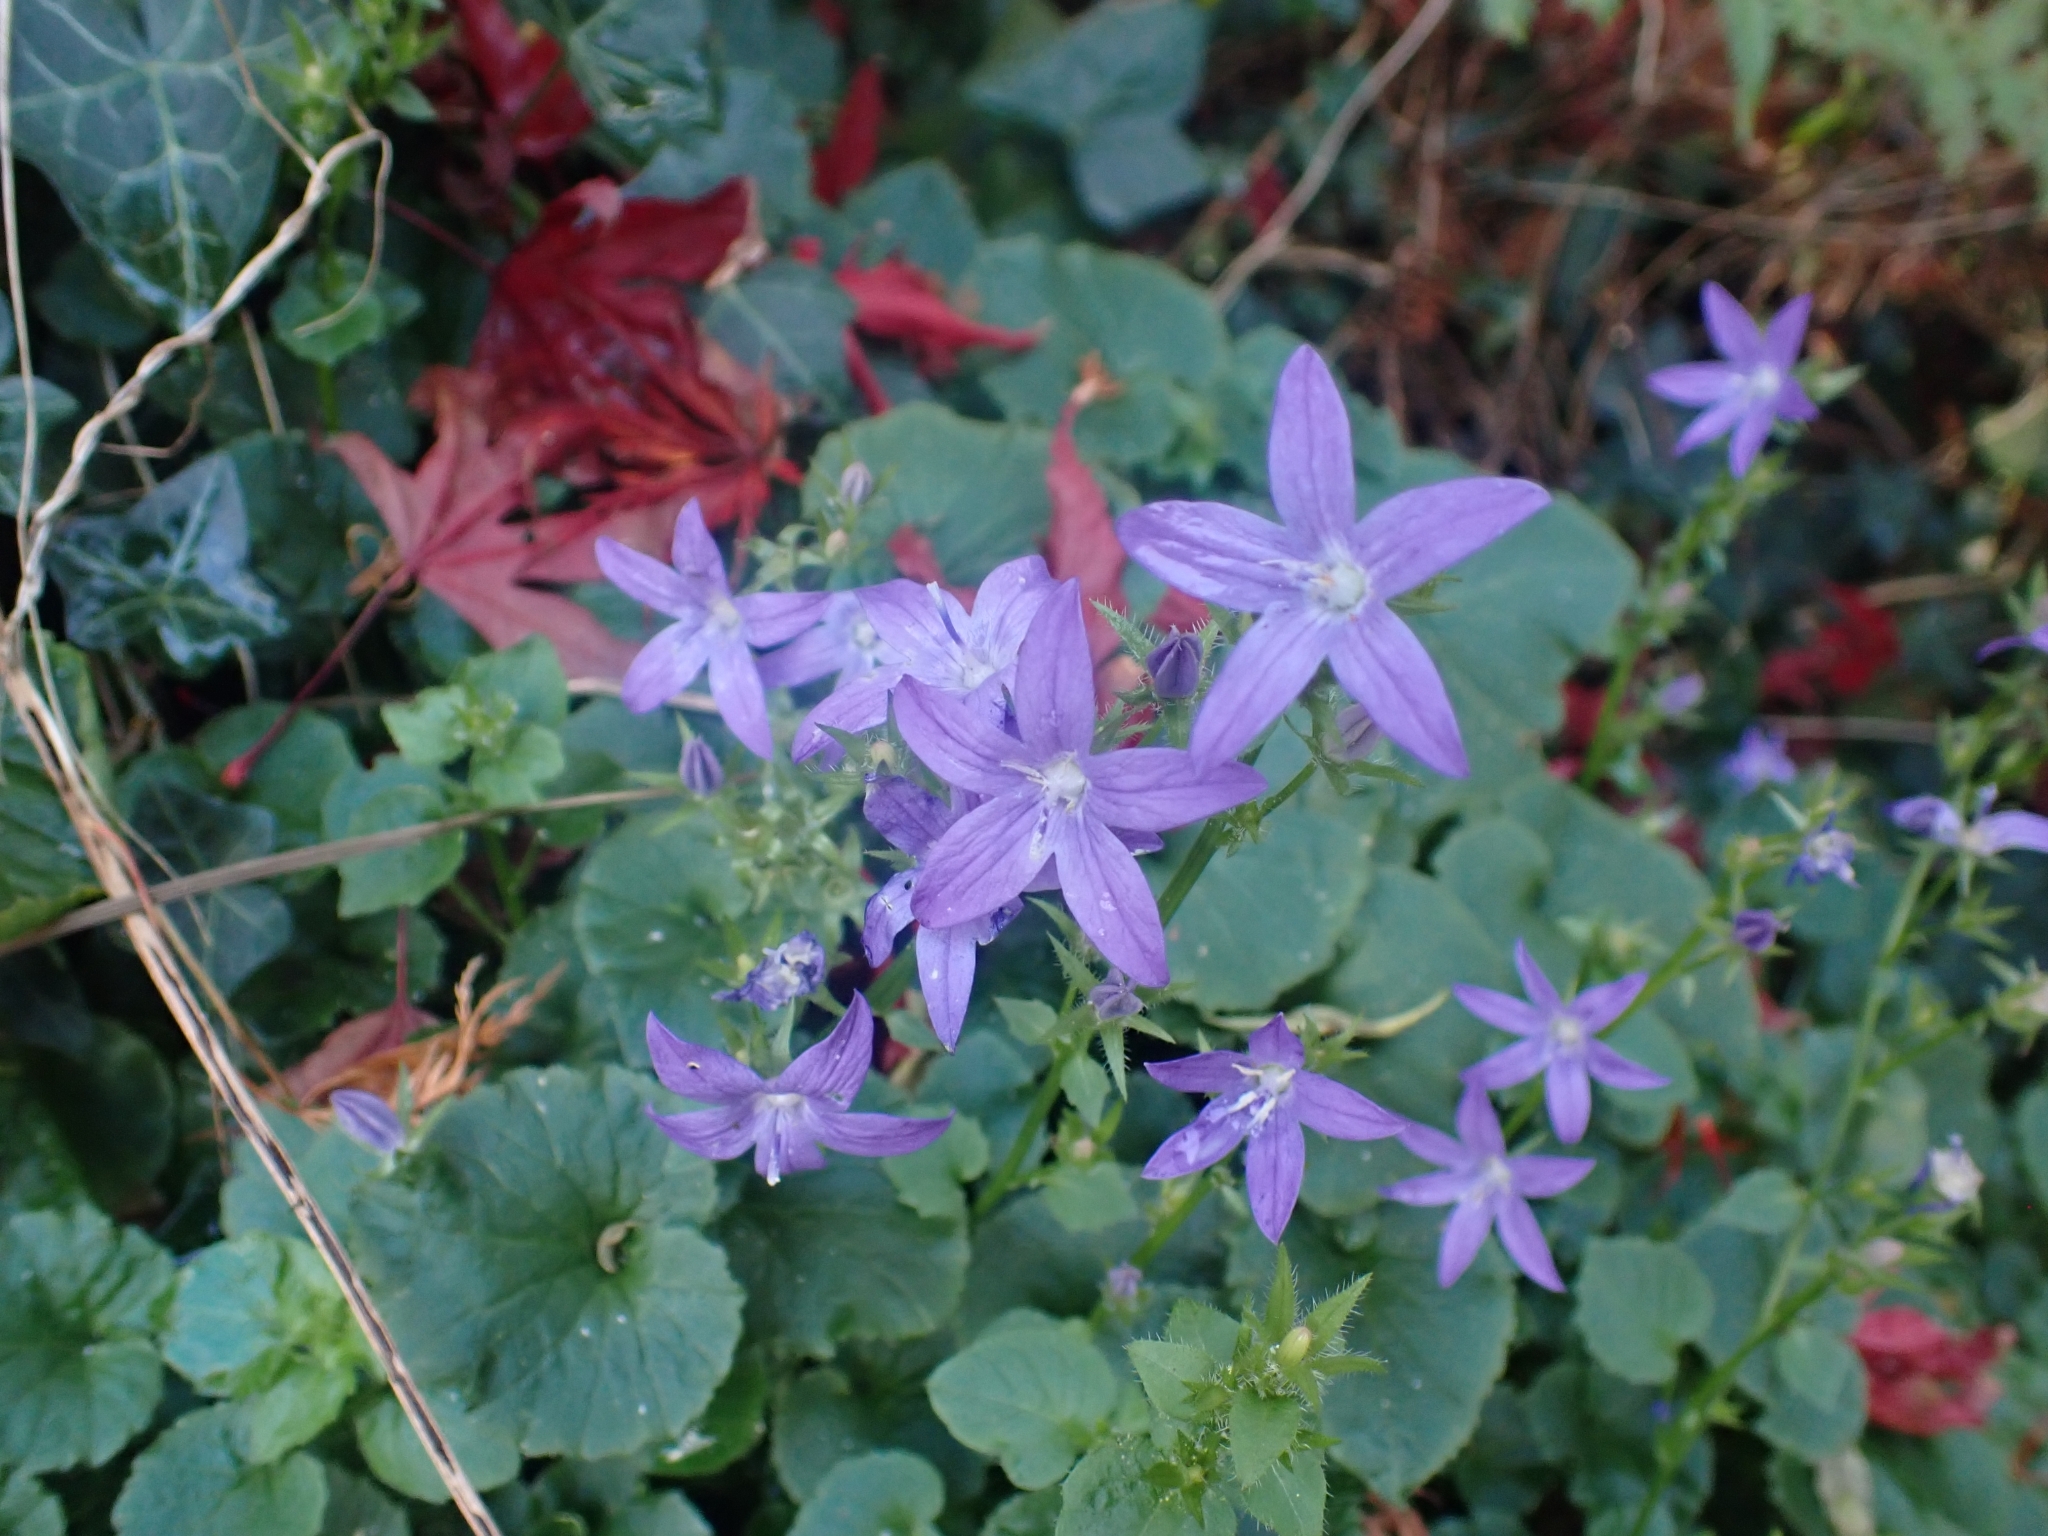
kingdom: Plantae
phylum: Tracheophyta
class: Magnoliopsida
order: Asterales
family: Campanulaceae
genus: Campanula
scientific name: Campanula poscharskyana
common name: Trailing bellflower
